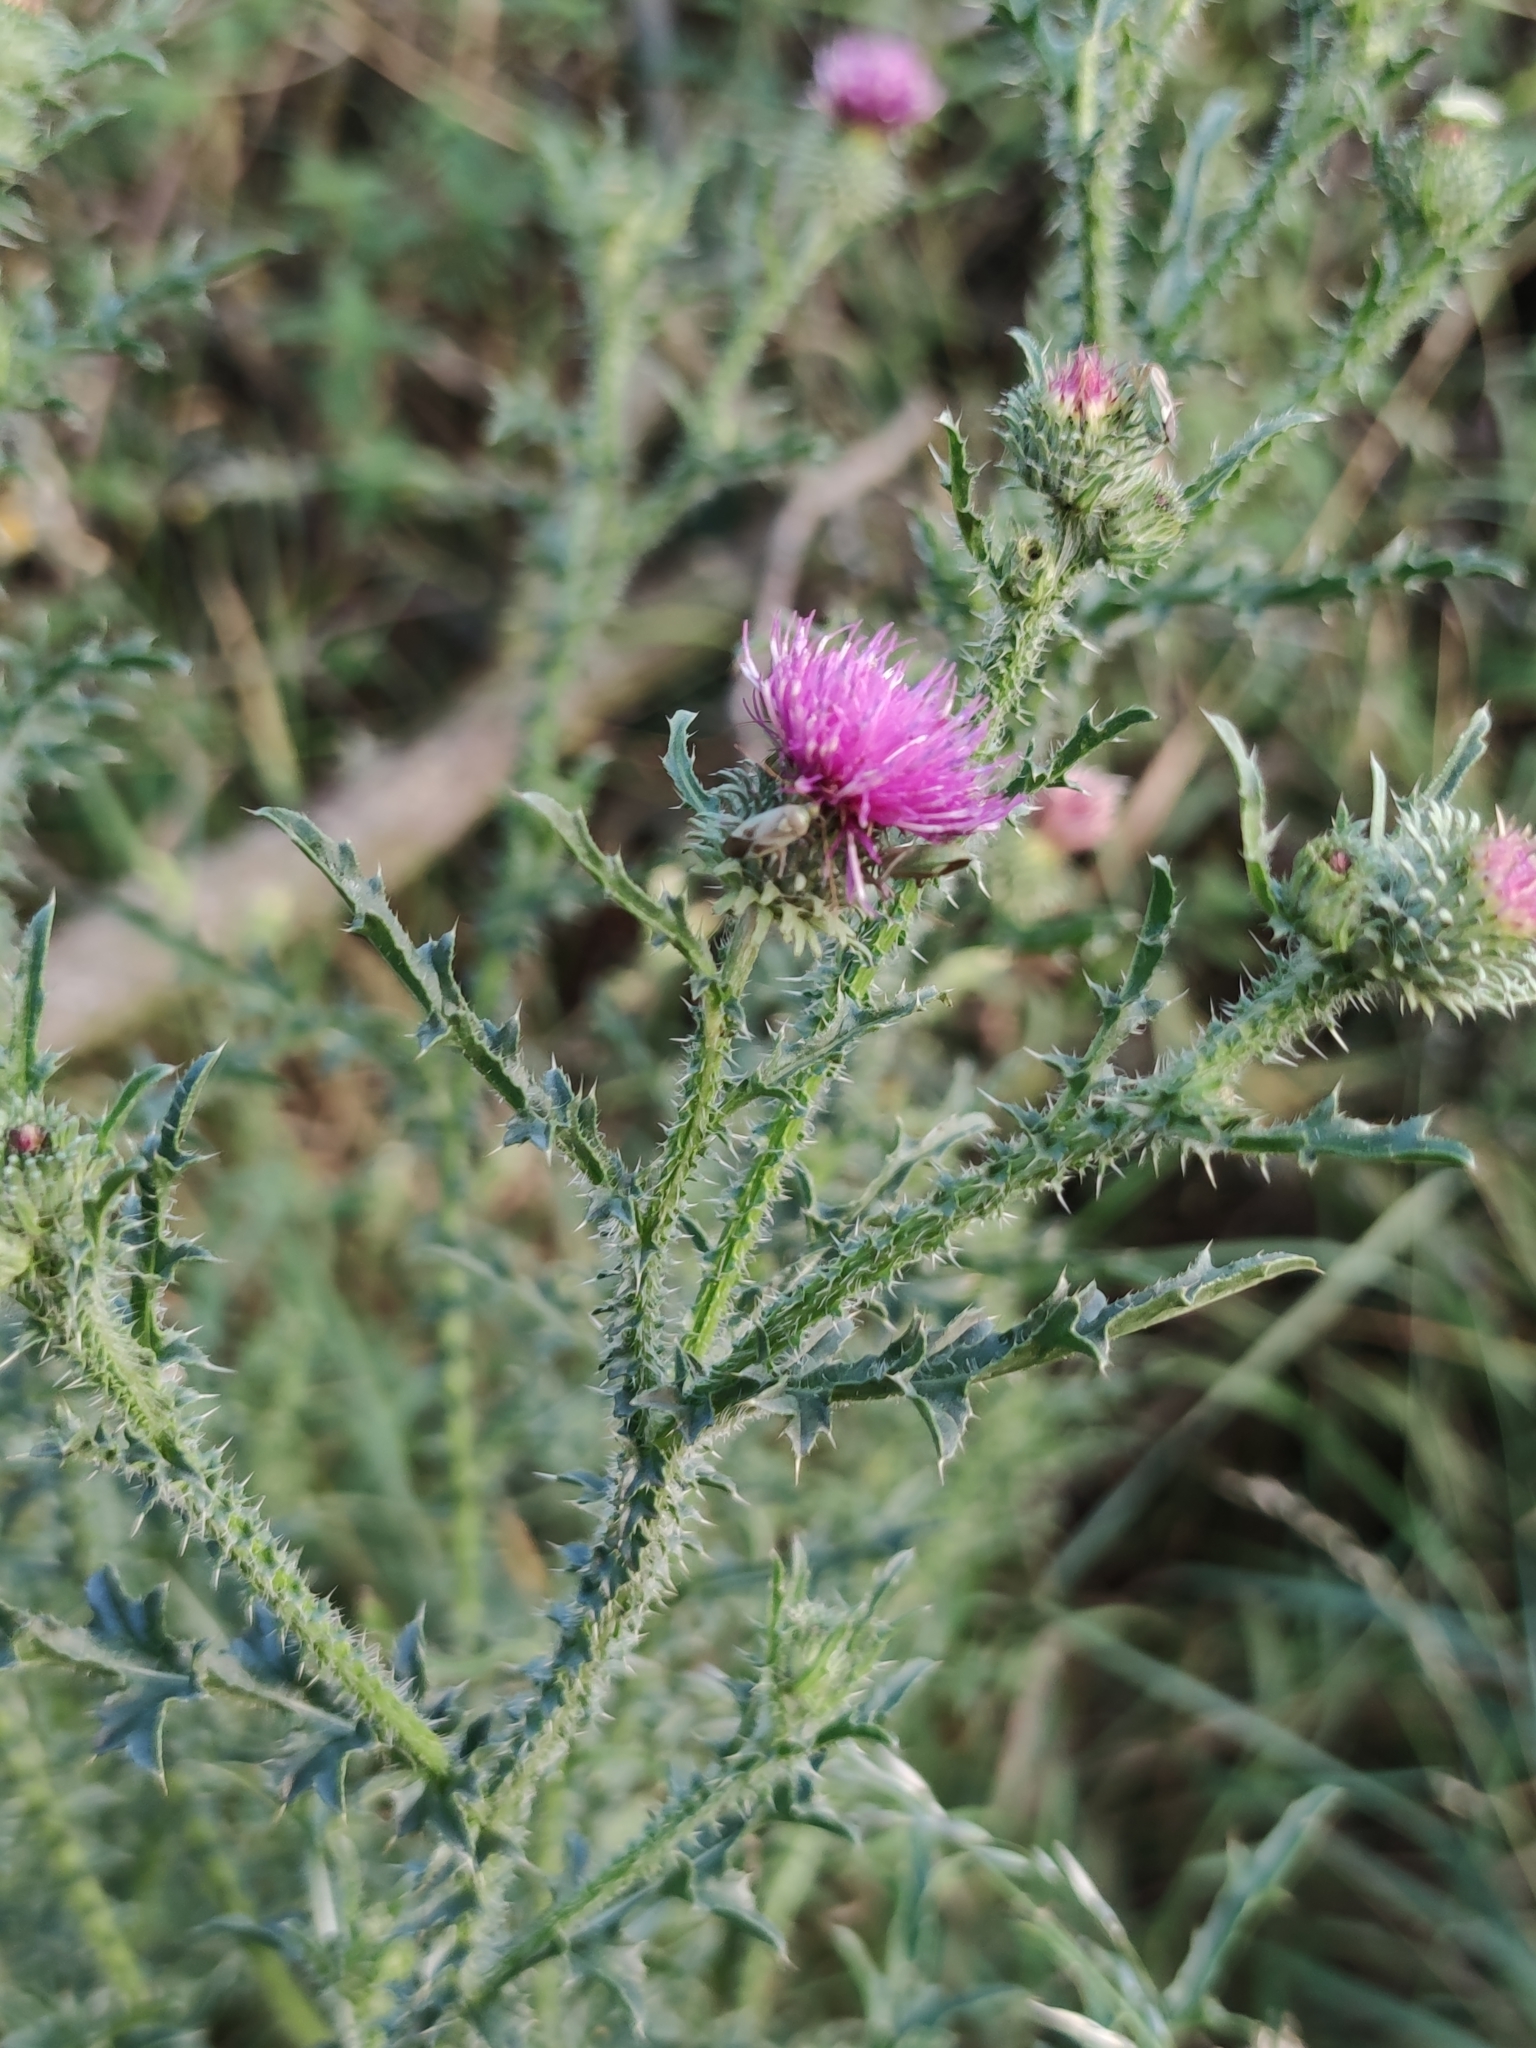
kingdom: Plantae
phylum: Tracheophyta
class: Magnoliopsida
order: Asterales
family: Asteraceae
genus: Carduus
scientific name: Carduus acanthoides
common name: Plumeless thistle
